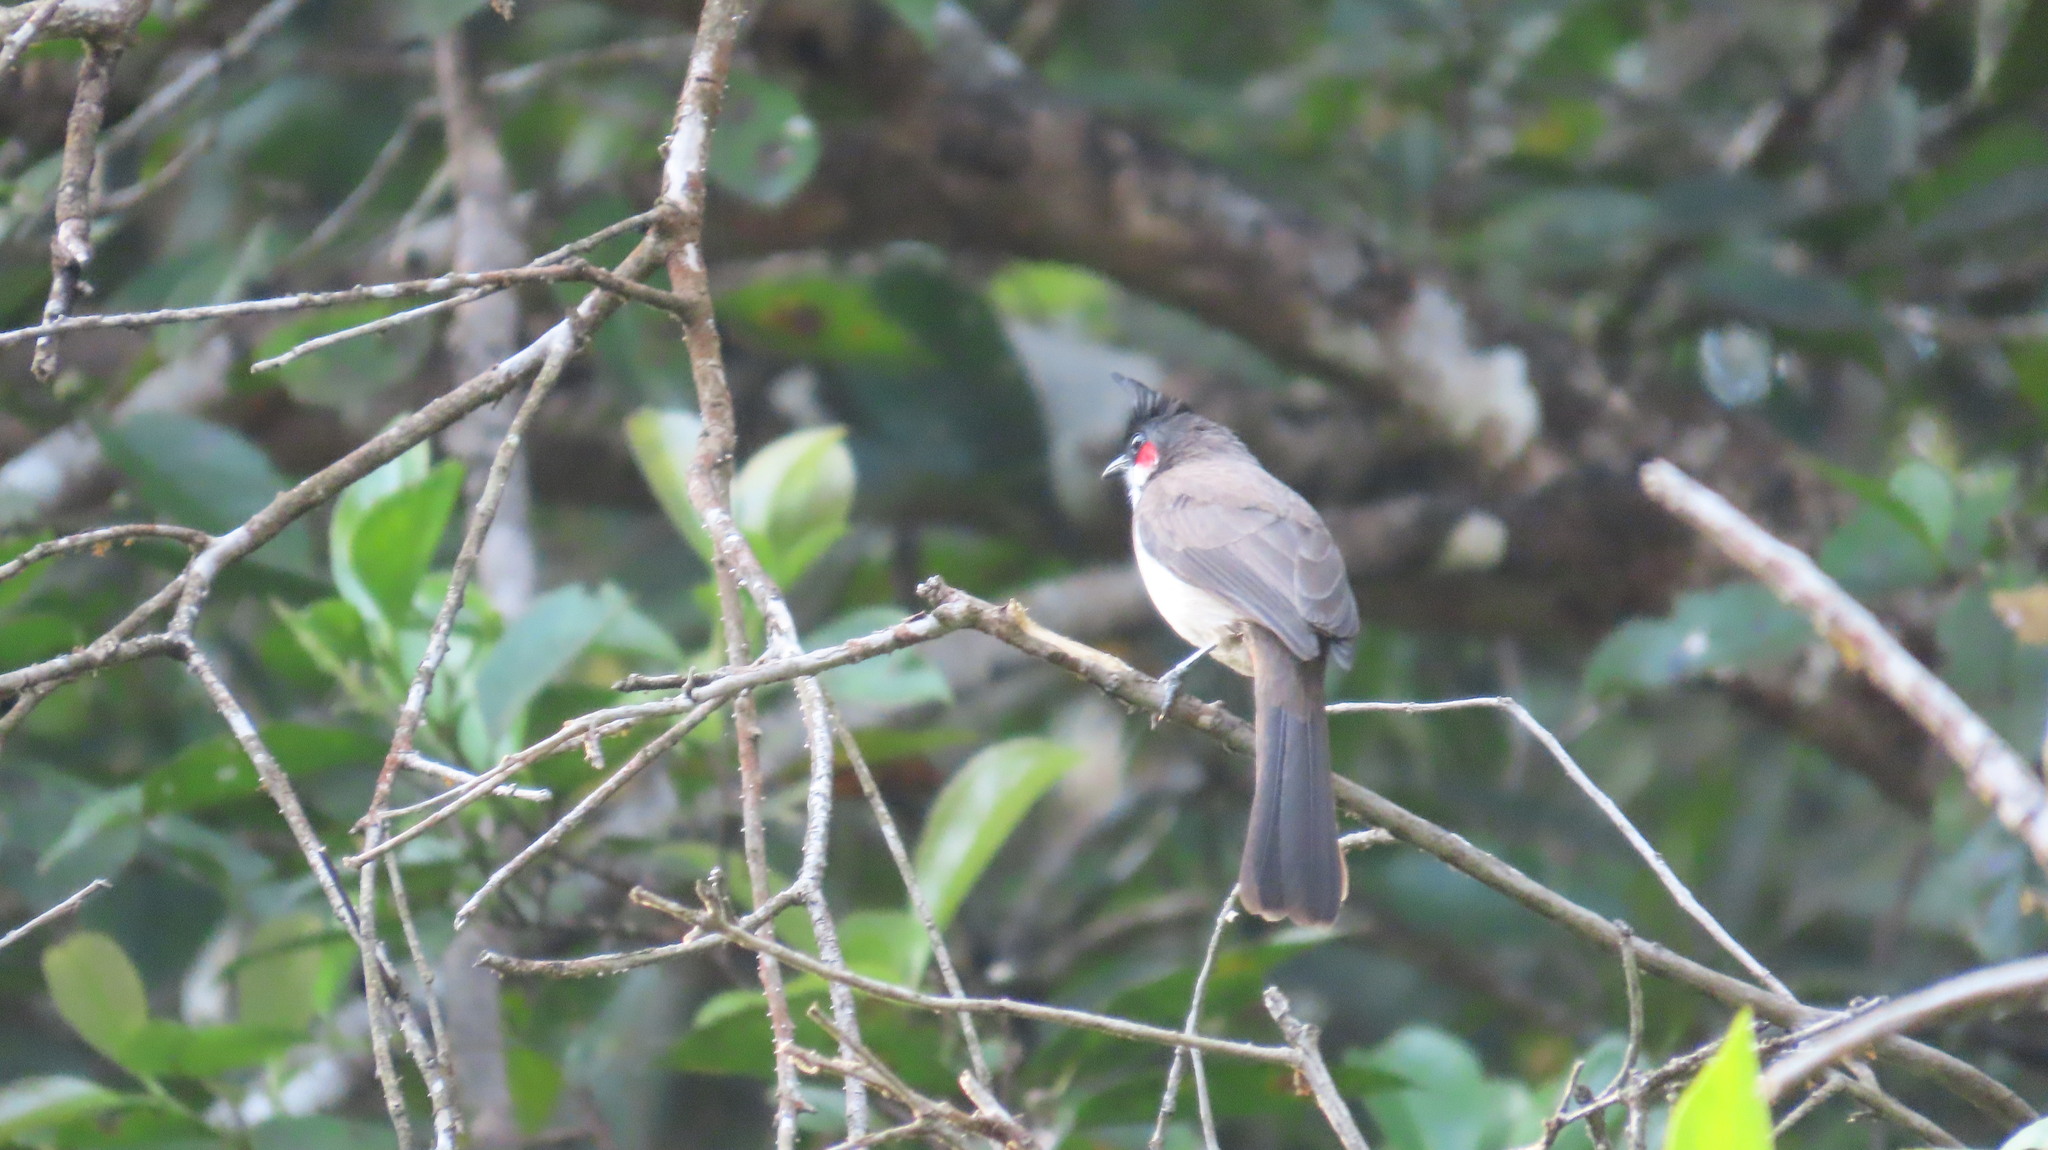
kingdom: Animalia
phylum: Chordata
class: Aves
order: Passeriformes
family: Pycnonotidae
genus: Pycnonotus
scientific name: Pycnonotus jocosus
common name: Red-whiskered bulbul
